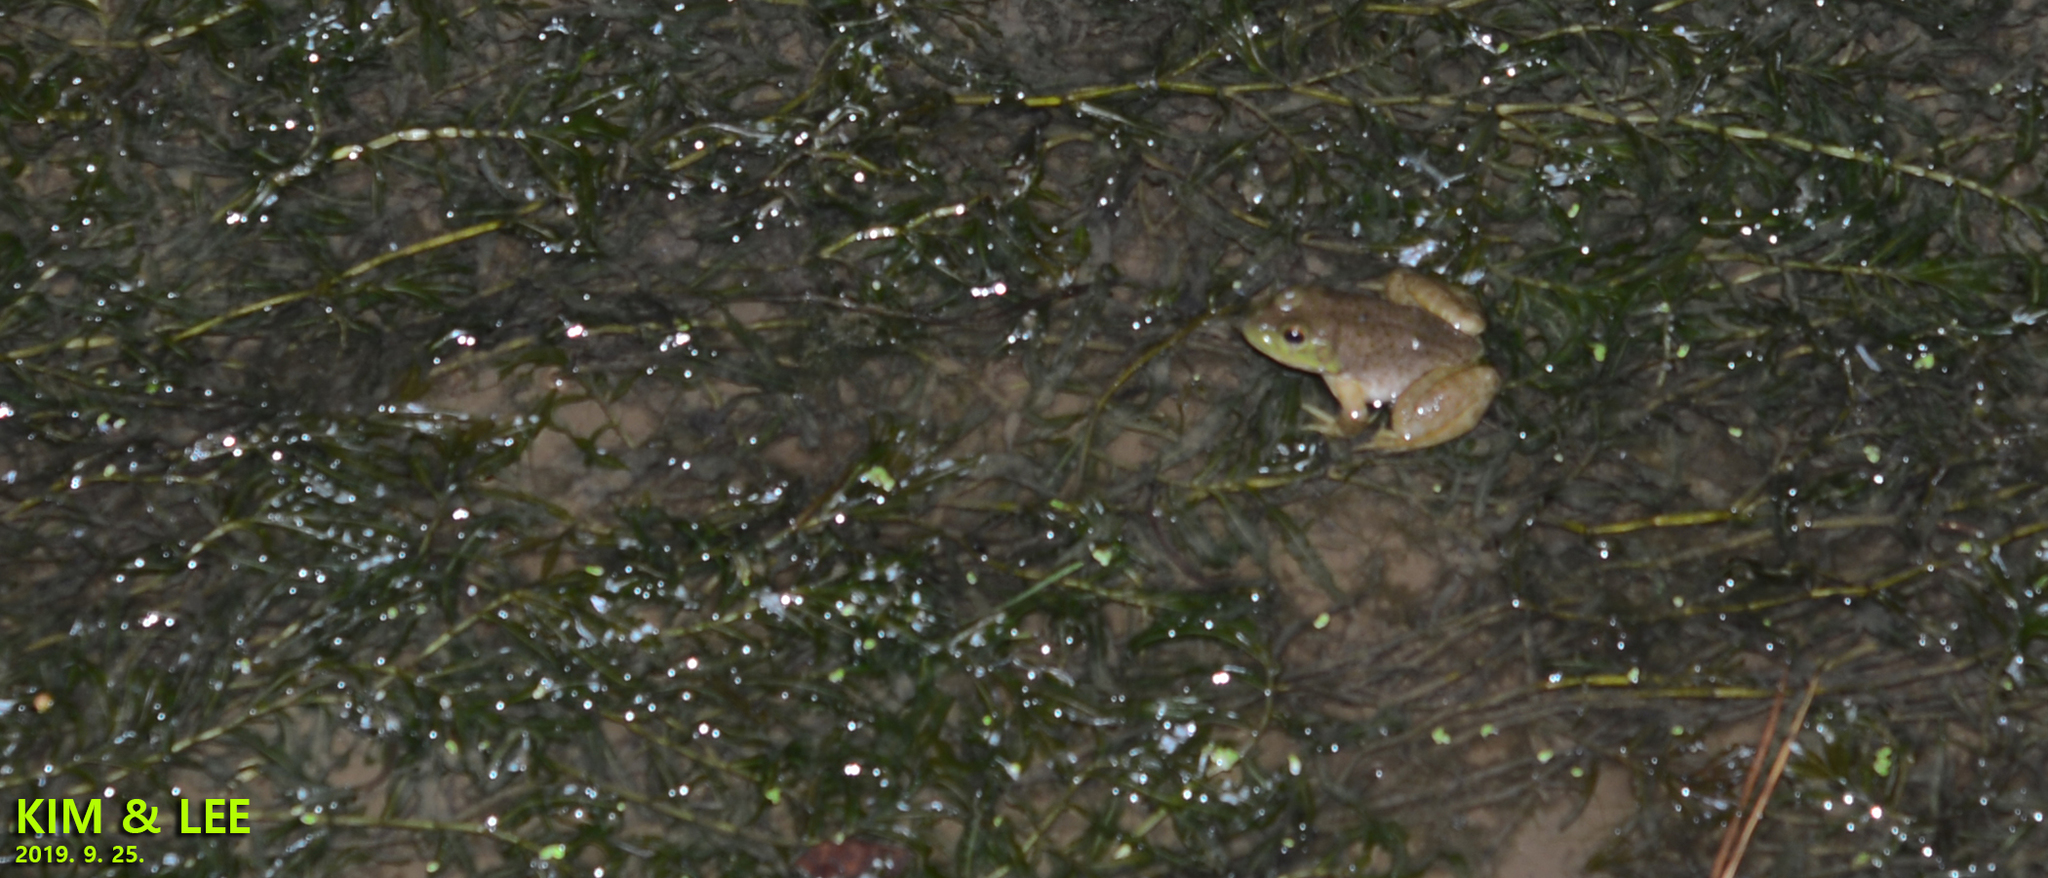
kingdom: Animalia
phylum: Chordata
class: Amphibia
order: Anura
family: Ranidae
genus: Lithobates
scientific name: Lithobates catesbeianus
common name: American bullfrog
